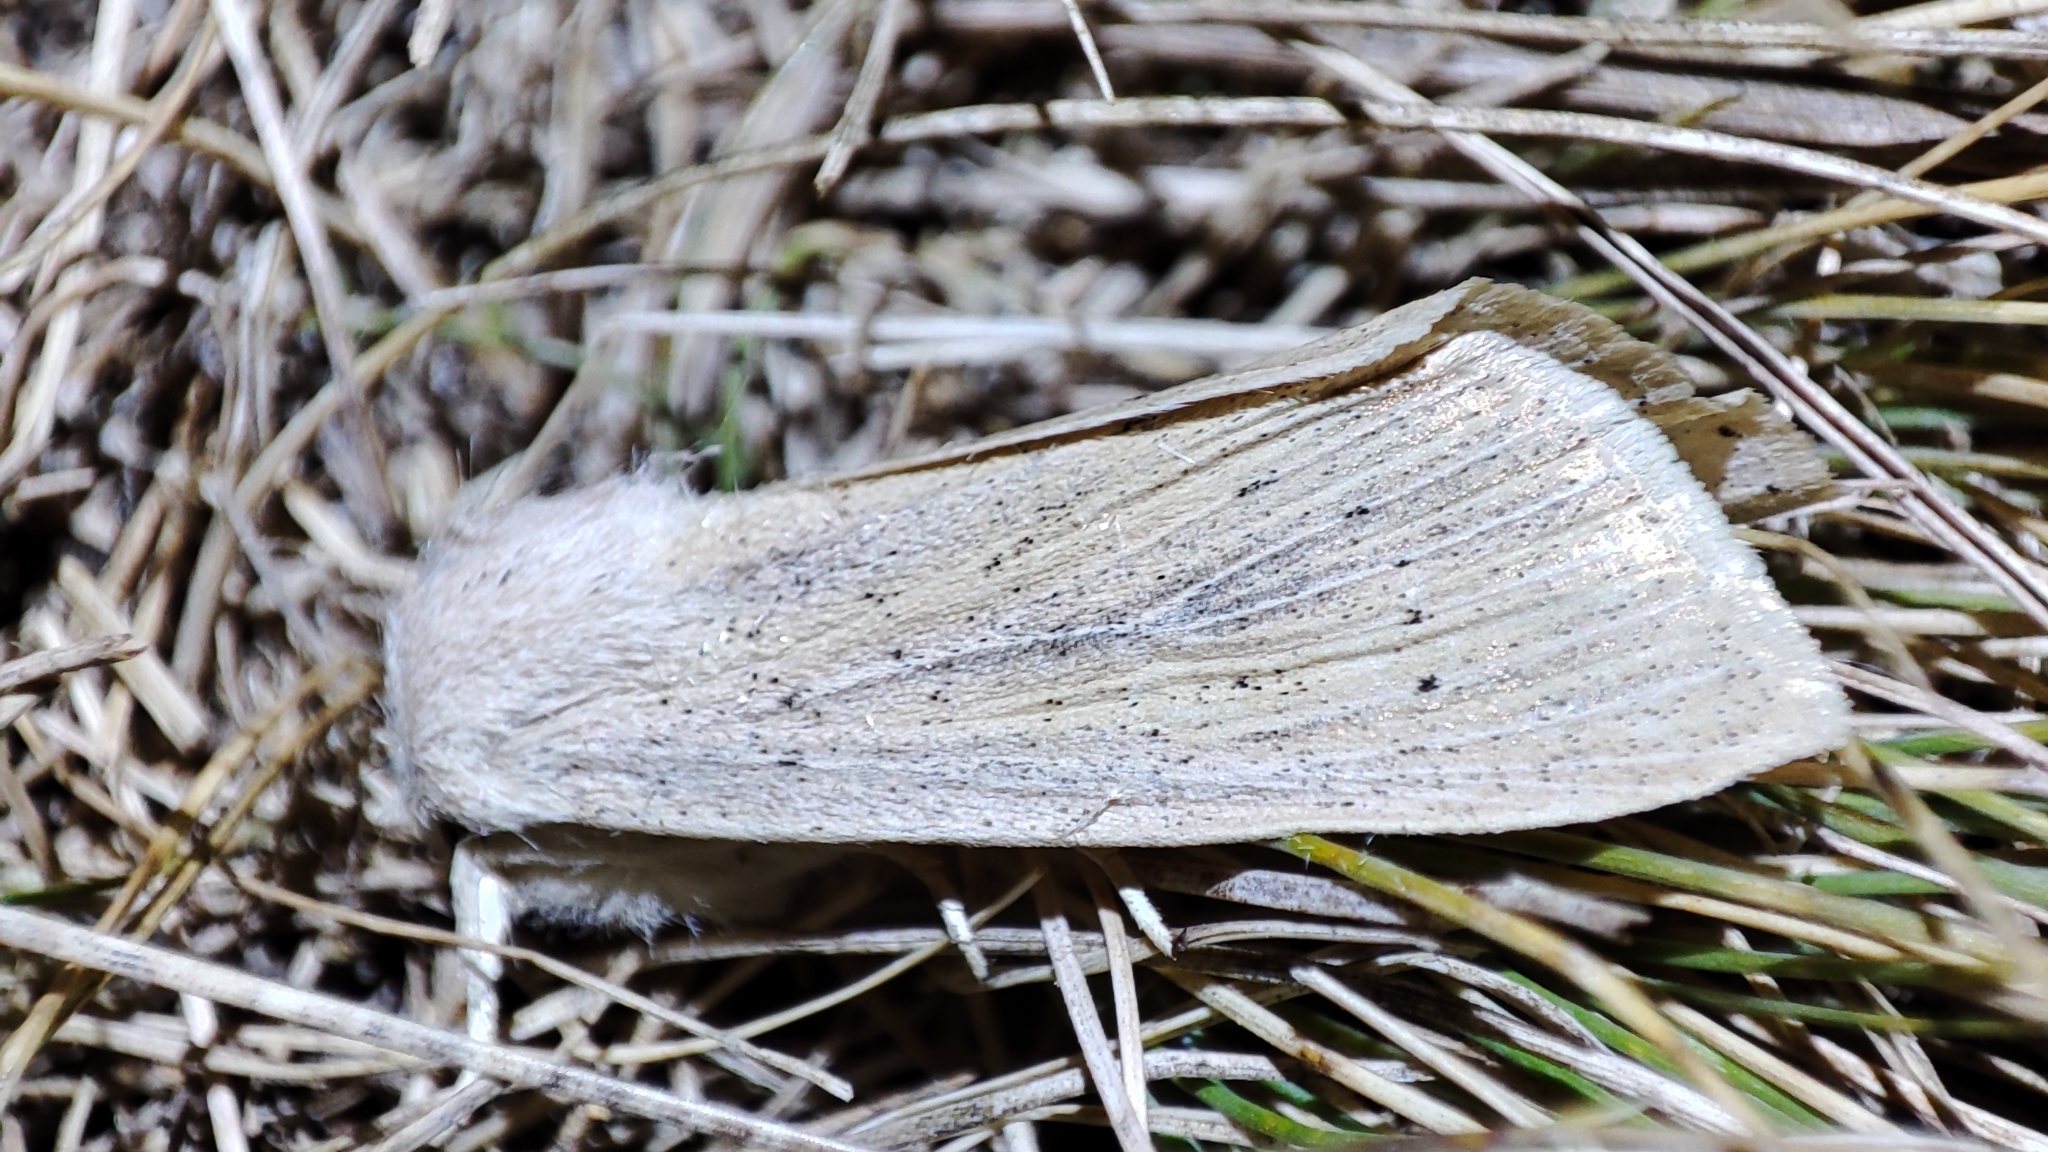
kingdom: Animalia
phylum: Arthropoda
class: Insecta
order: Lepidoptera
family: Noctuidae
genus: Rhizedra
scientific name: Rhizedra lutosa
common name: Large wainscot
